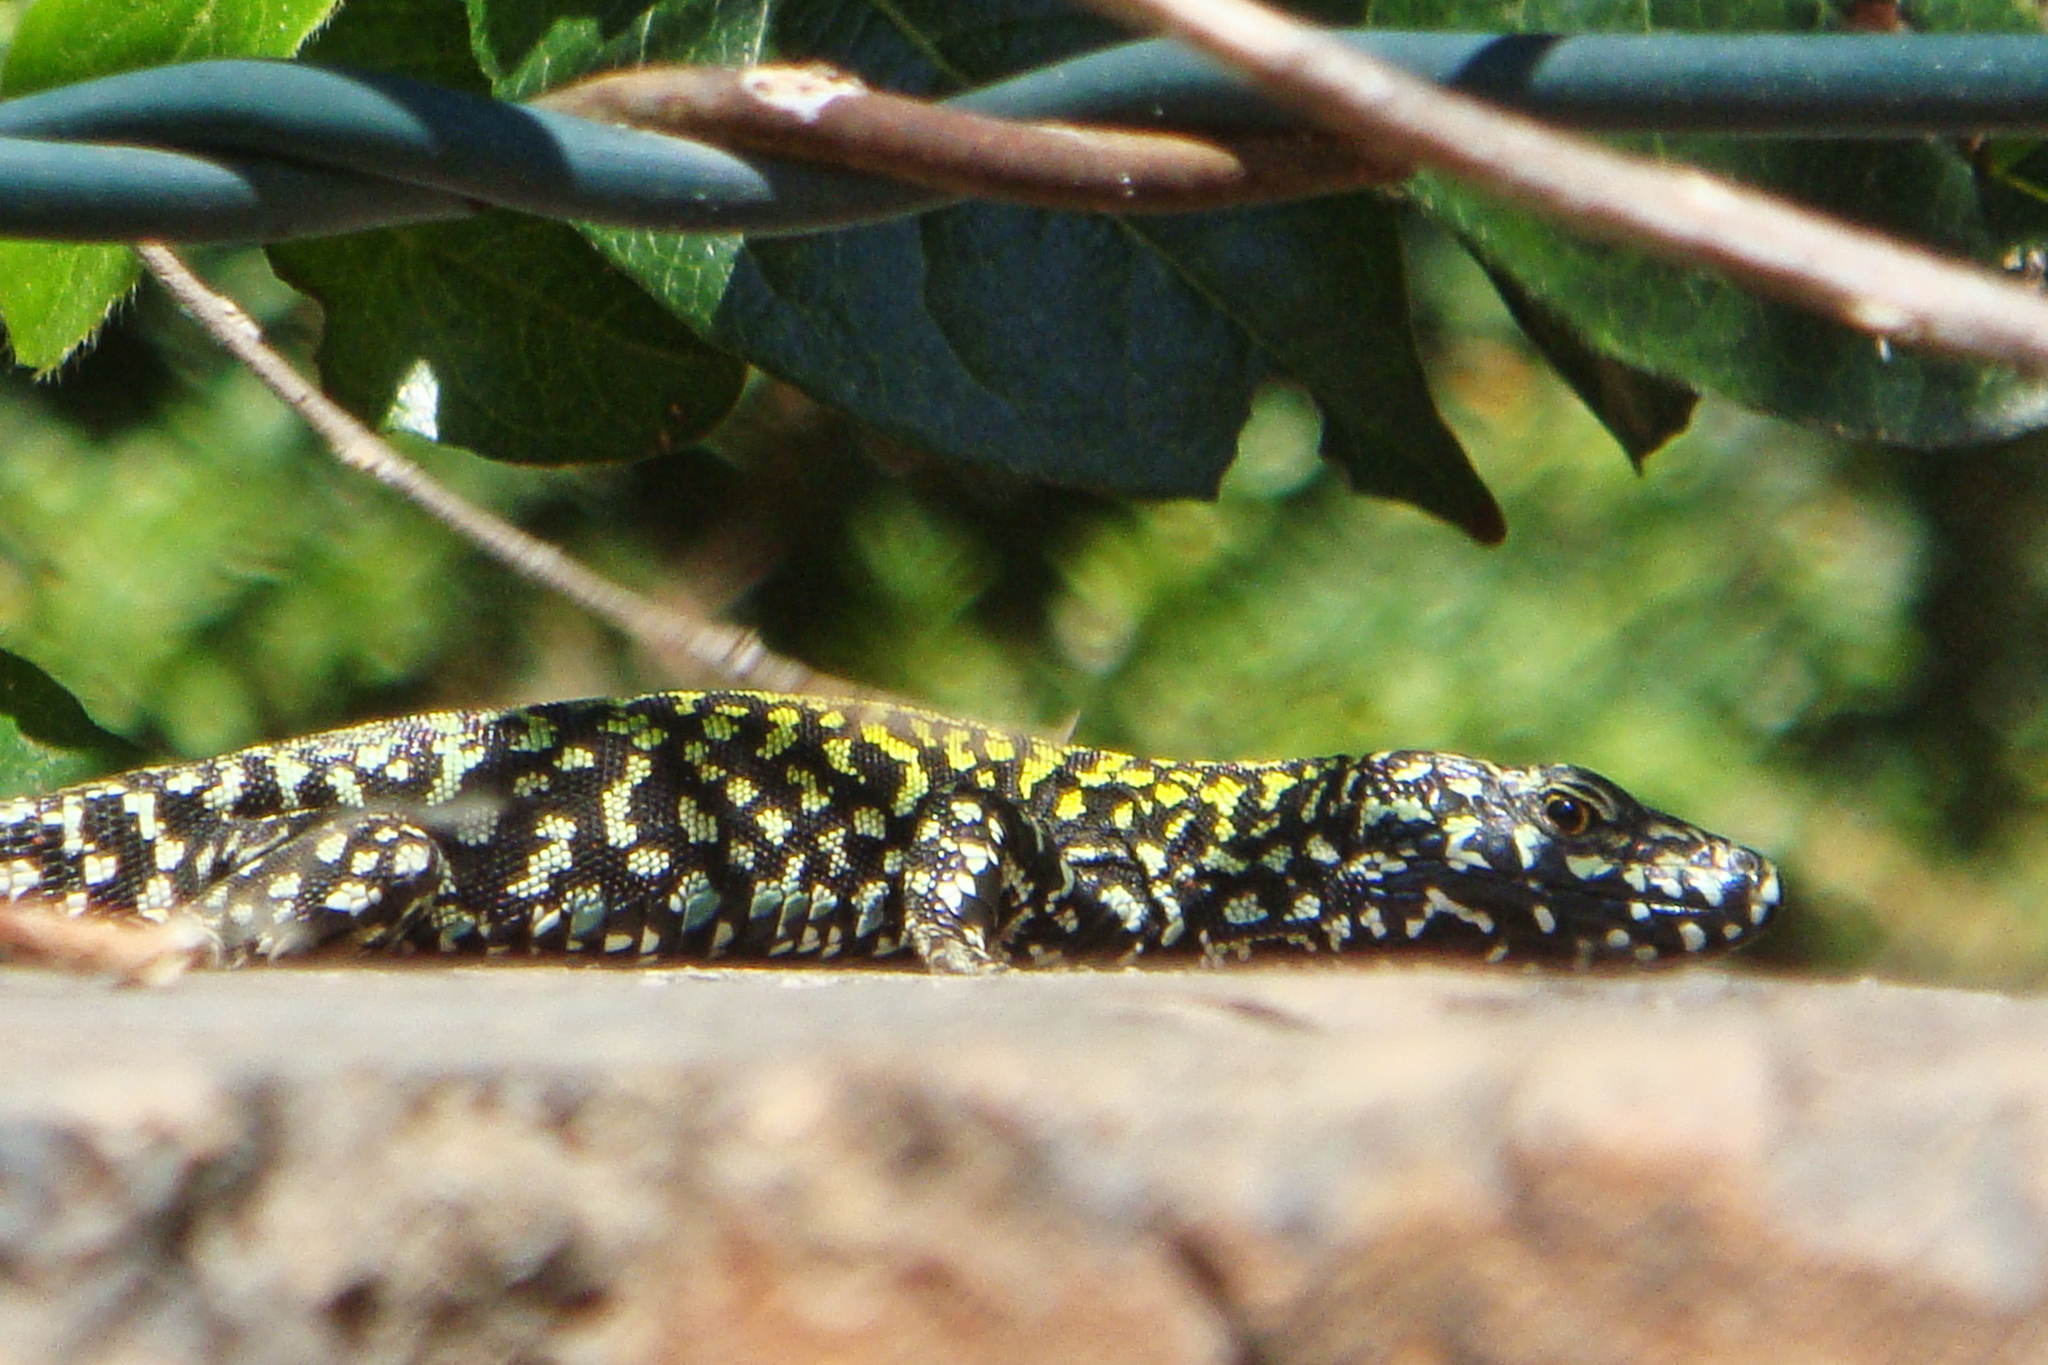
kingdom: Animalia
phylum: Chordata
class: Squamata
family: Lacertidae
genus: Podarcis
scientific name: Podarcis muralis
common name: Common wall lizard
